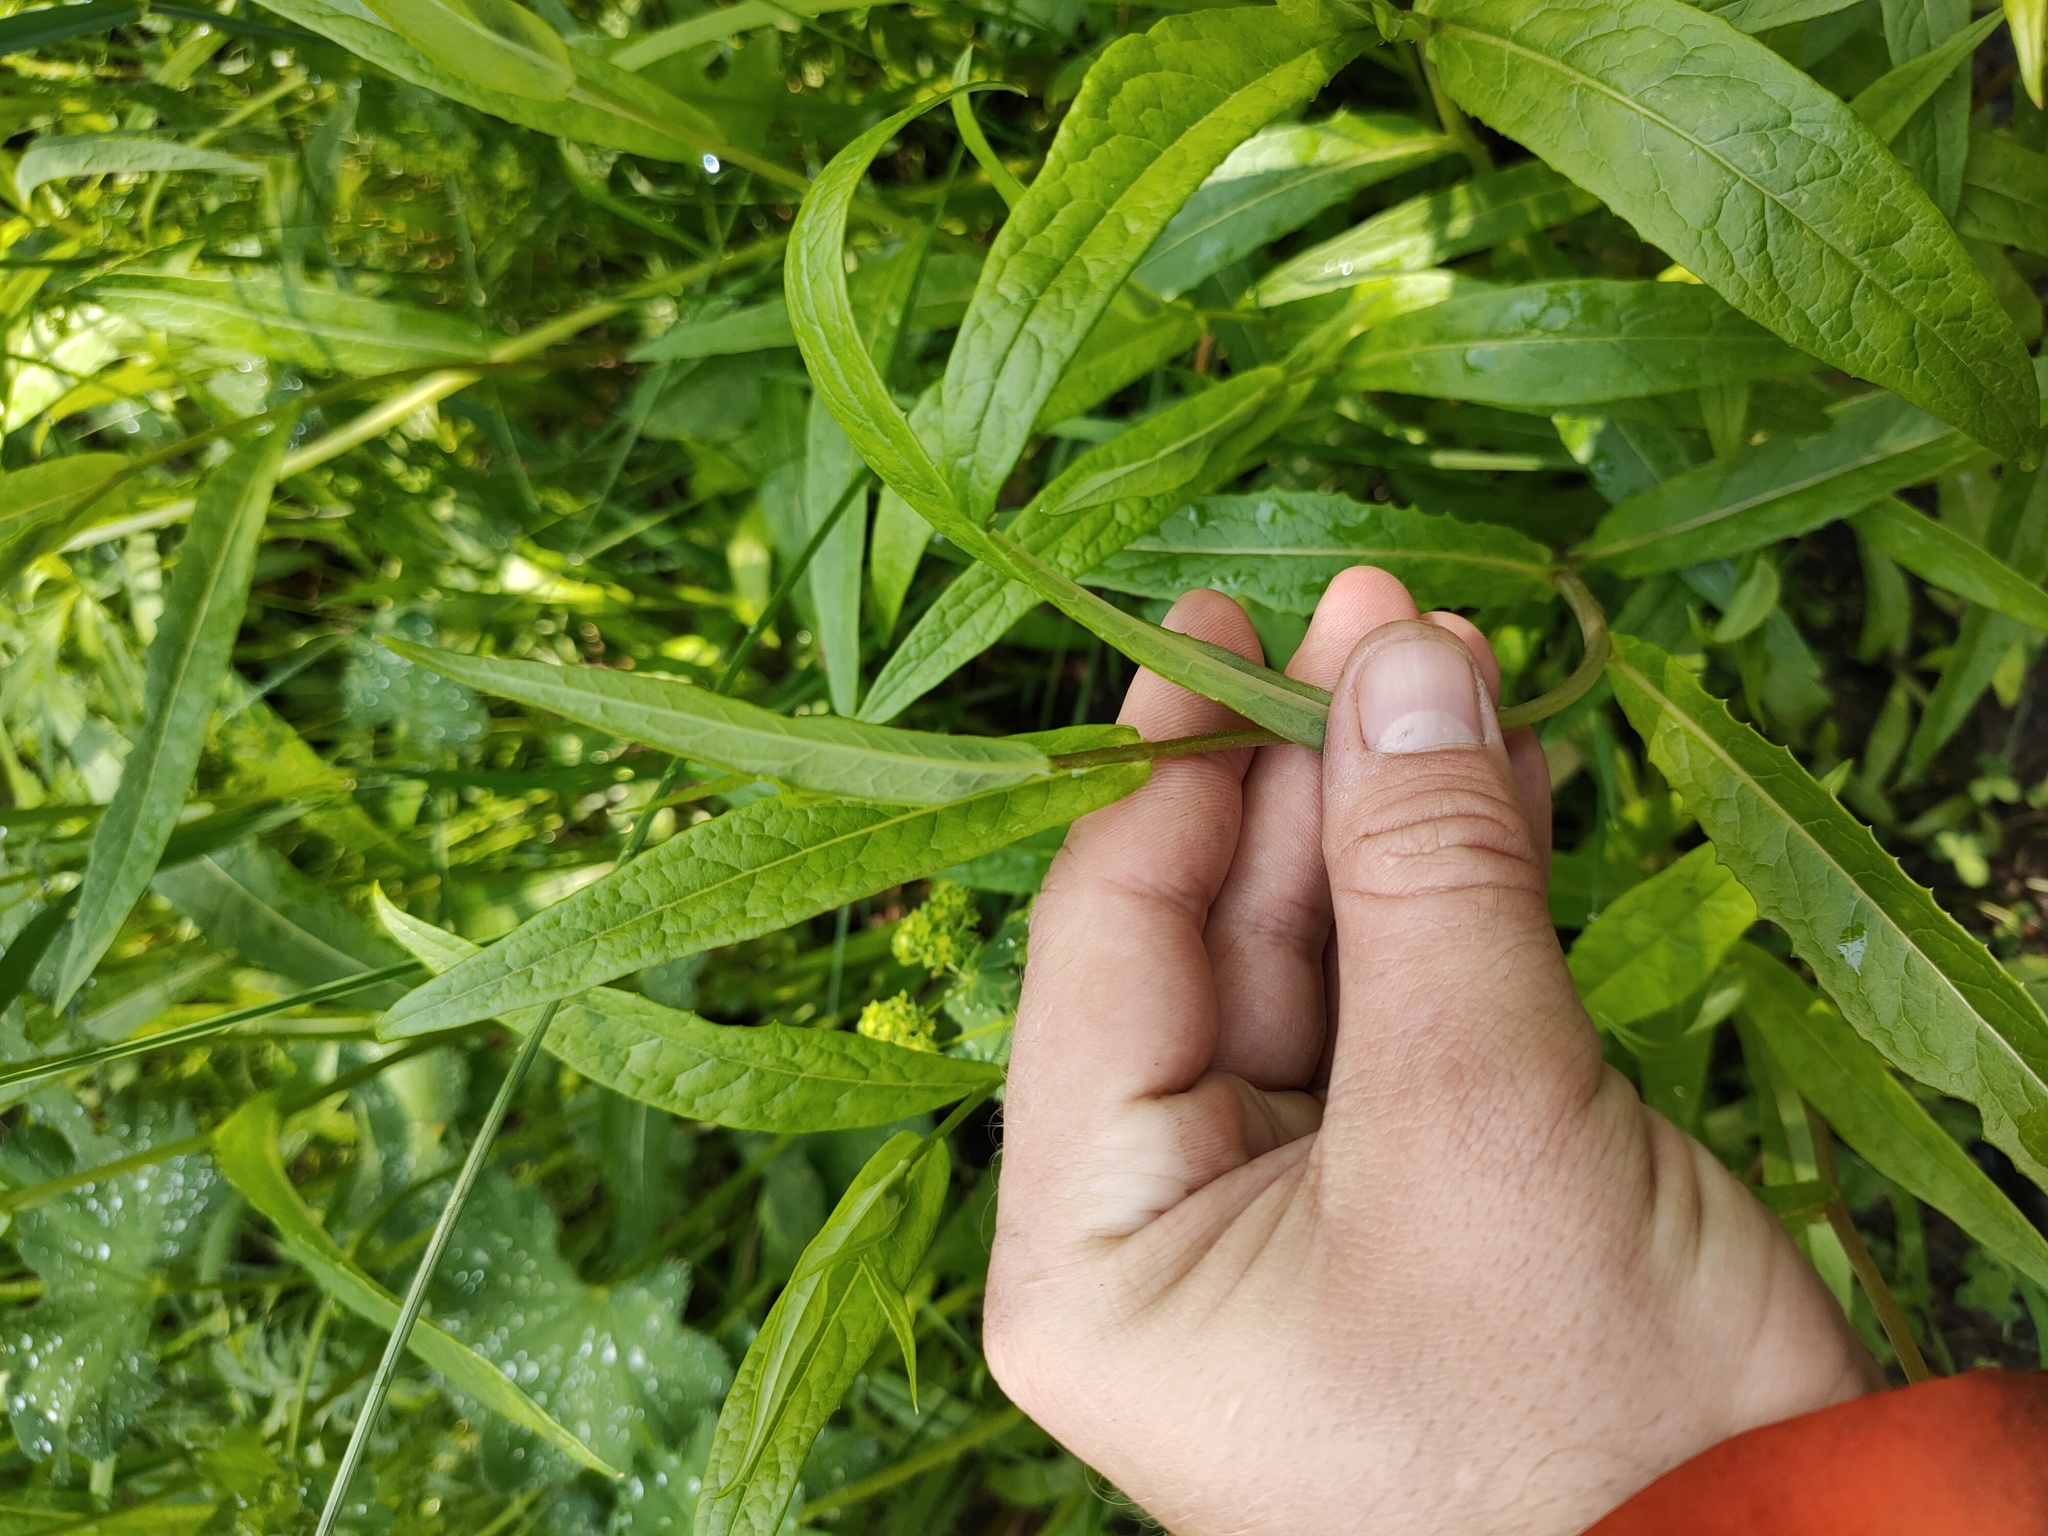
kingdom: Plantae
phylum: Tracheophyta
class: Magnoliopsida
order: Asterales
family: Asteraceae
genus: Lactuca
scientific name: Lactuca sibirica
